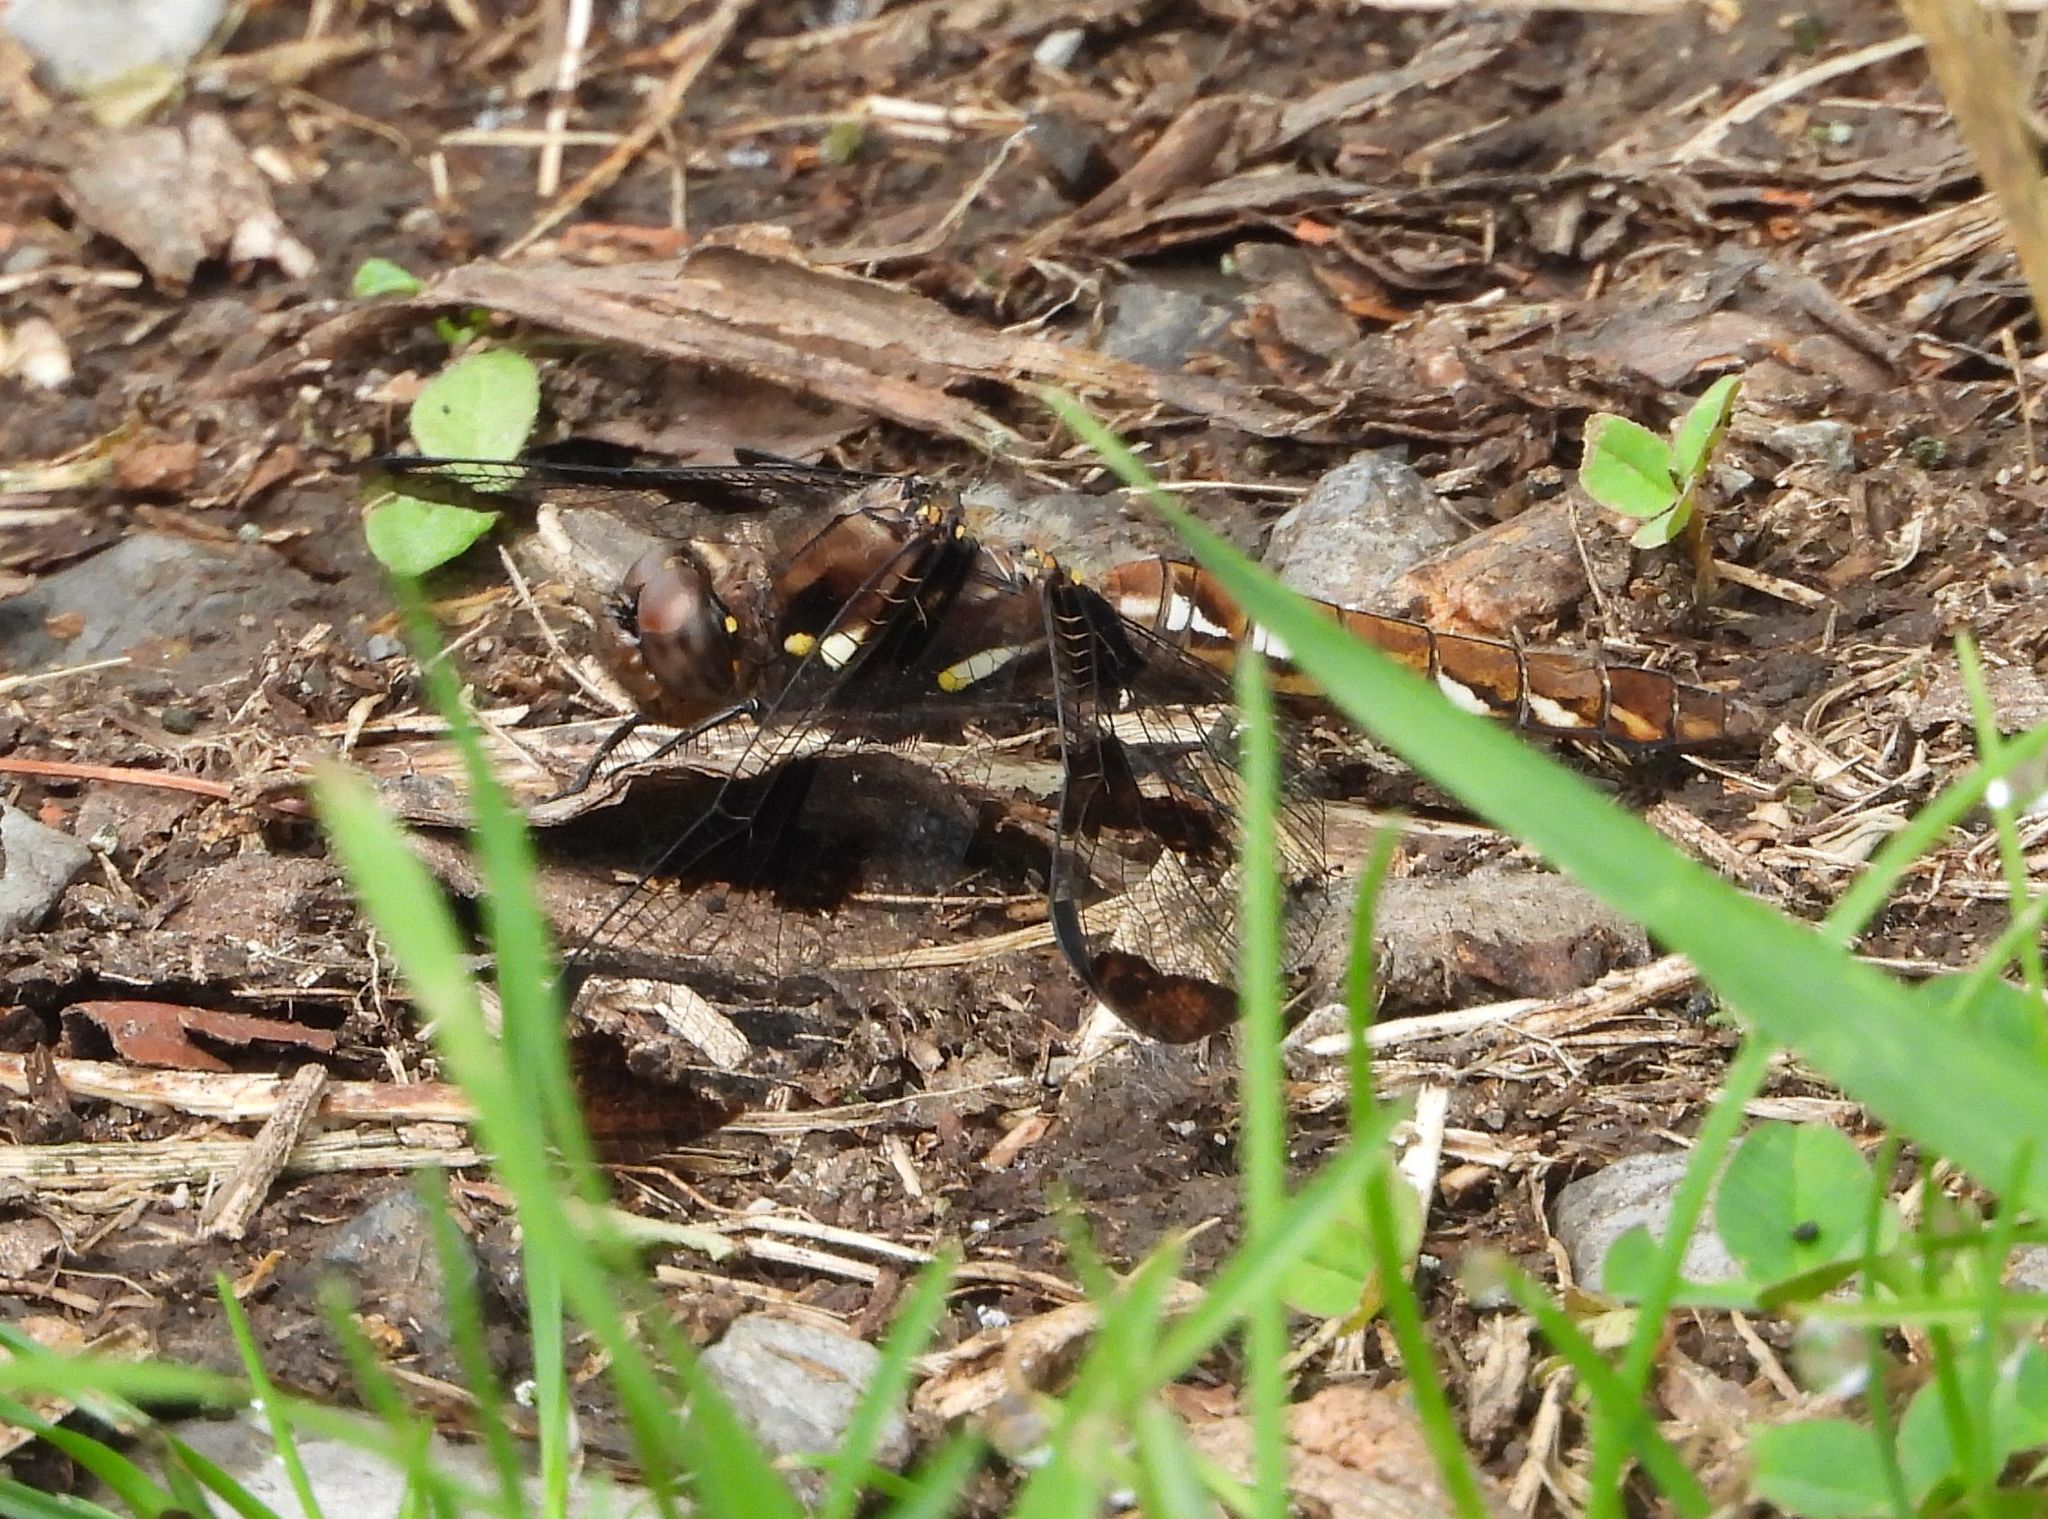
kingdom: Animalia
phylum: Arthropoda
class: Insecta
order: Odonata
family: Libellulidae
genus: Plathemis
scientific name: Plathemis lydia
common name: Common whitetail
